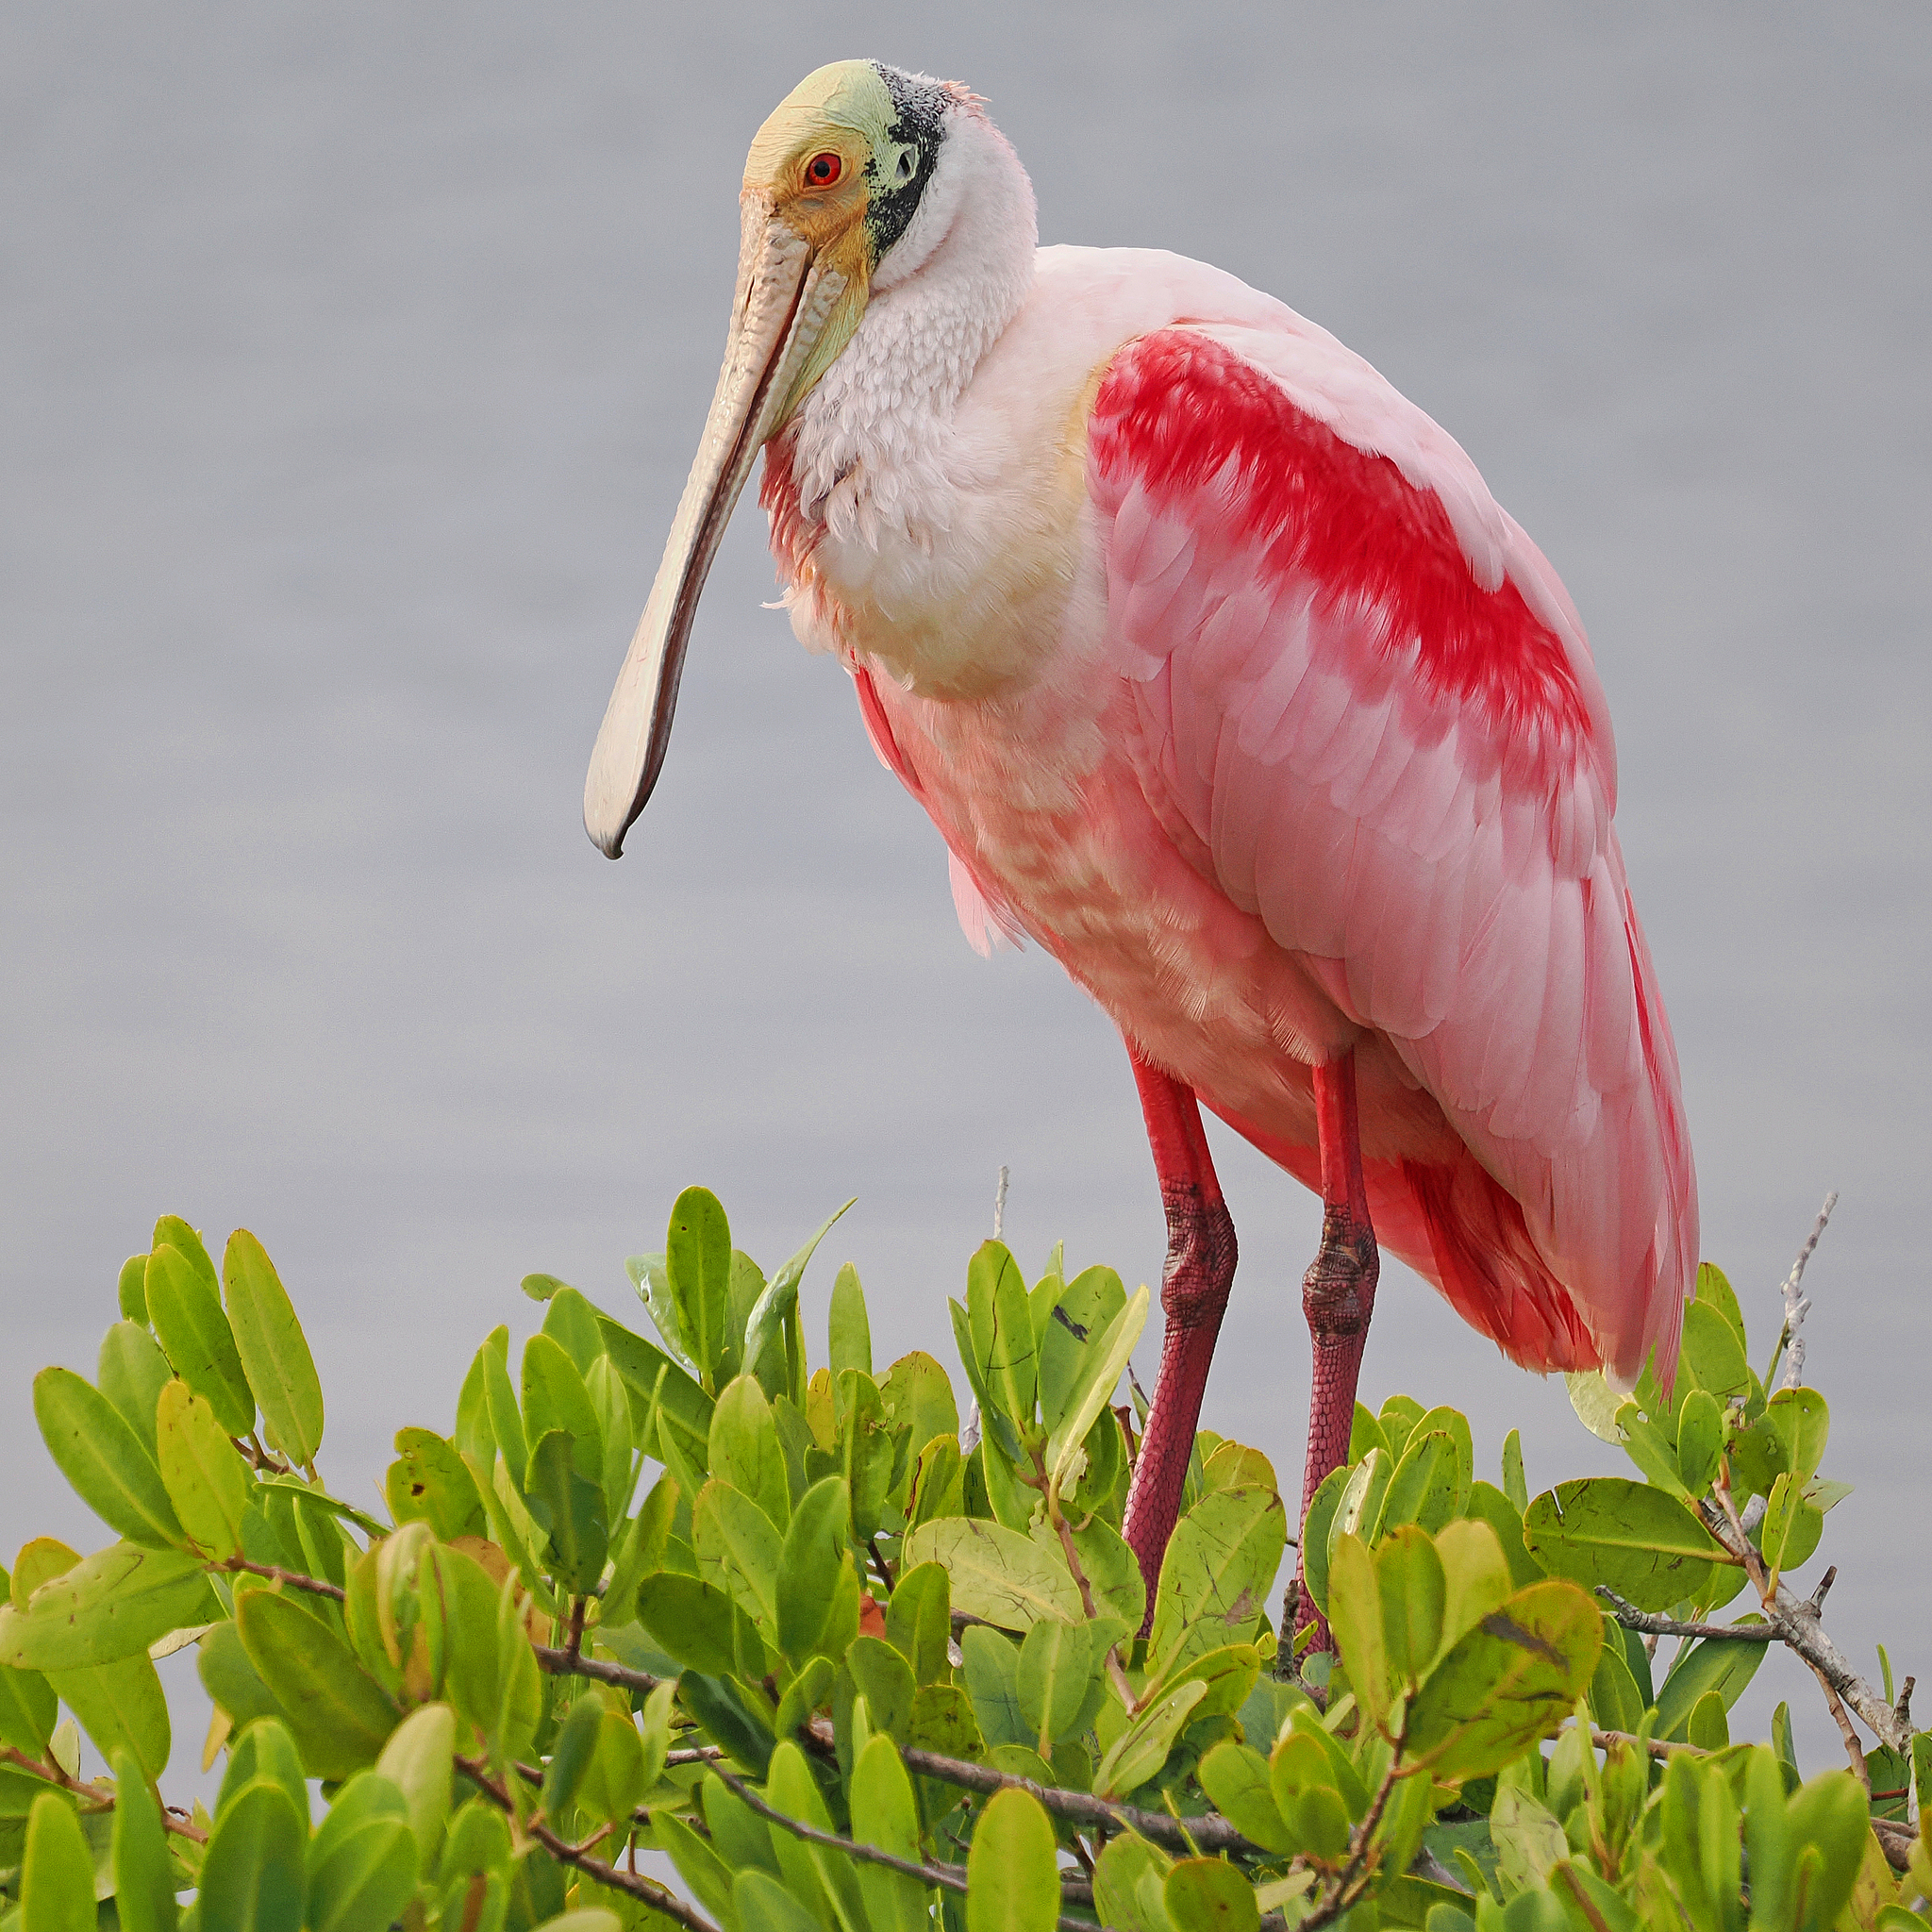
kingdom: Animalia
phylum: Chordata
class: Aves
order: Pelecaniformes
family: Threskiornithidae
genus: Platalea
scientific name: Platalea ajaja
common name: Roseate spoonbill
